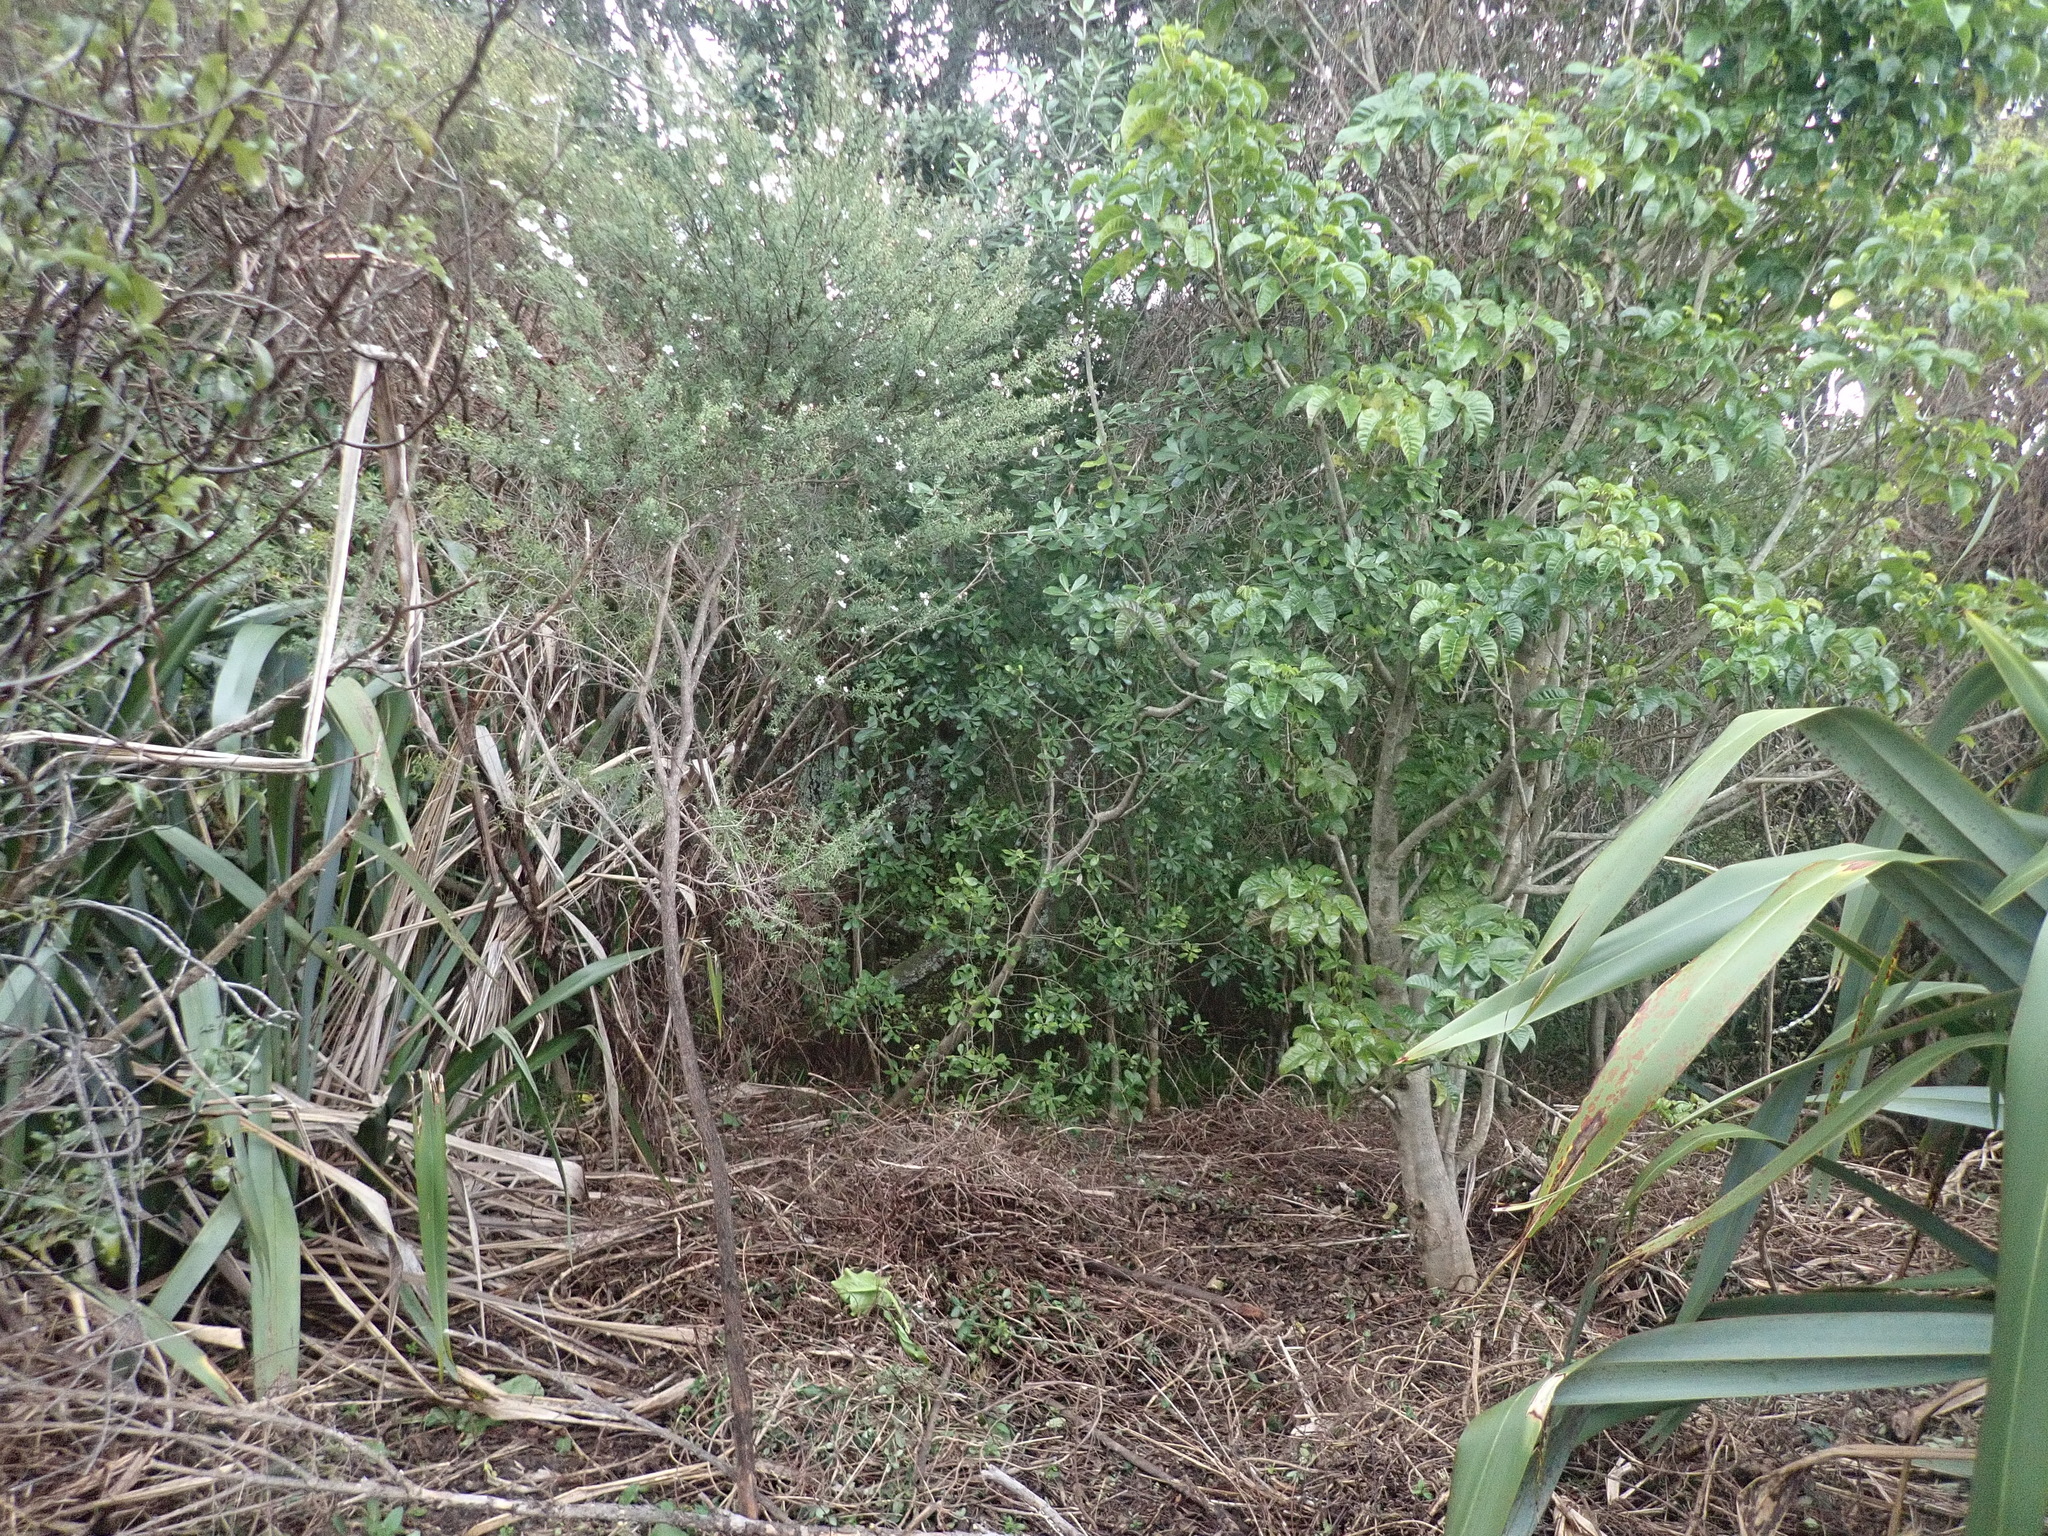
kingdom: Plantae
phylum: Tracheophyta
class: Magnoliopsida
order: Gentianales
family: Rubiaceae
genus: Coprosma
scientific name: Coprosma robusta
